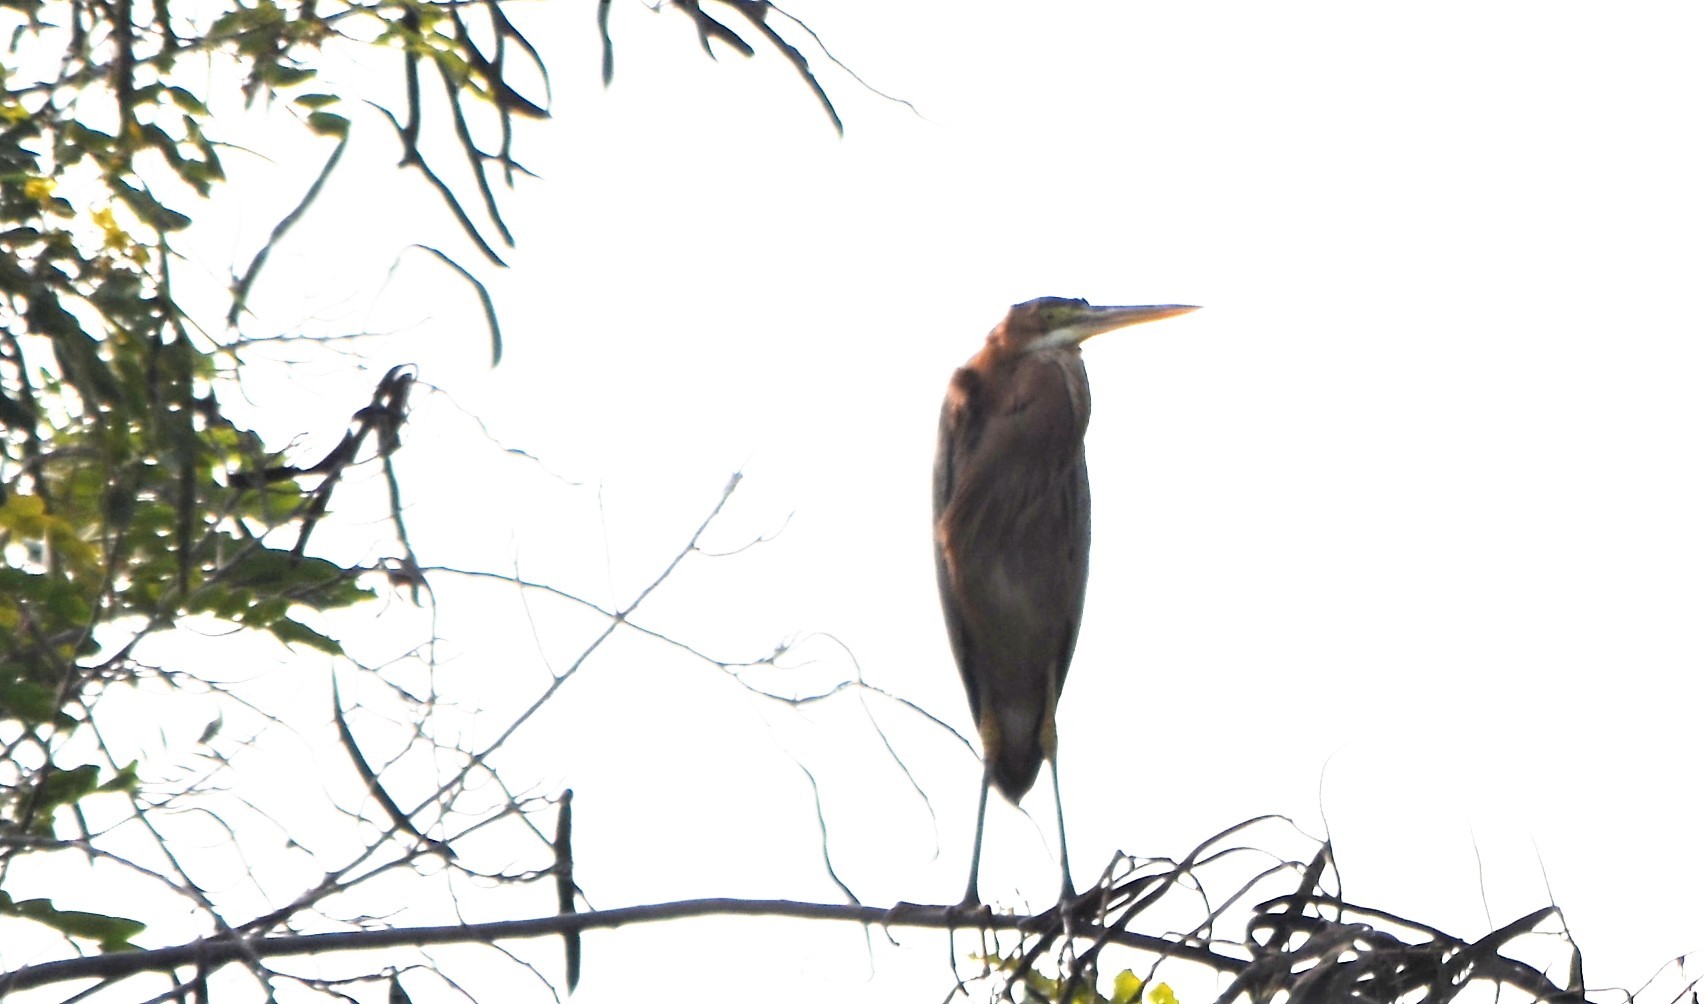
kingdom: Animalia
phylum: Chordata
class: Aves
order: Pelecaniformes
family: Ardeidae
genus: Ardea
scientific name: Ardea purpurea
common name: Purple heron
